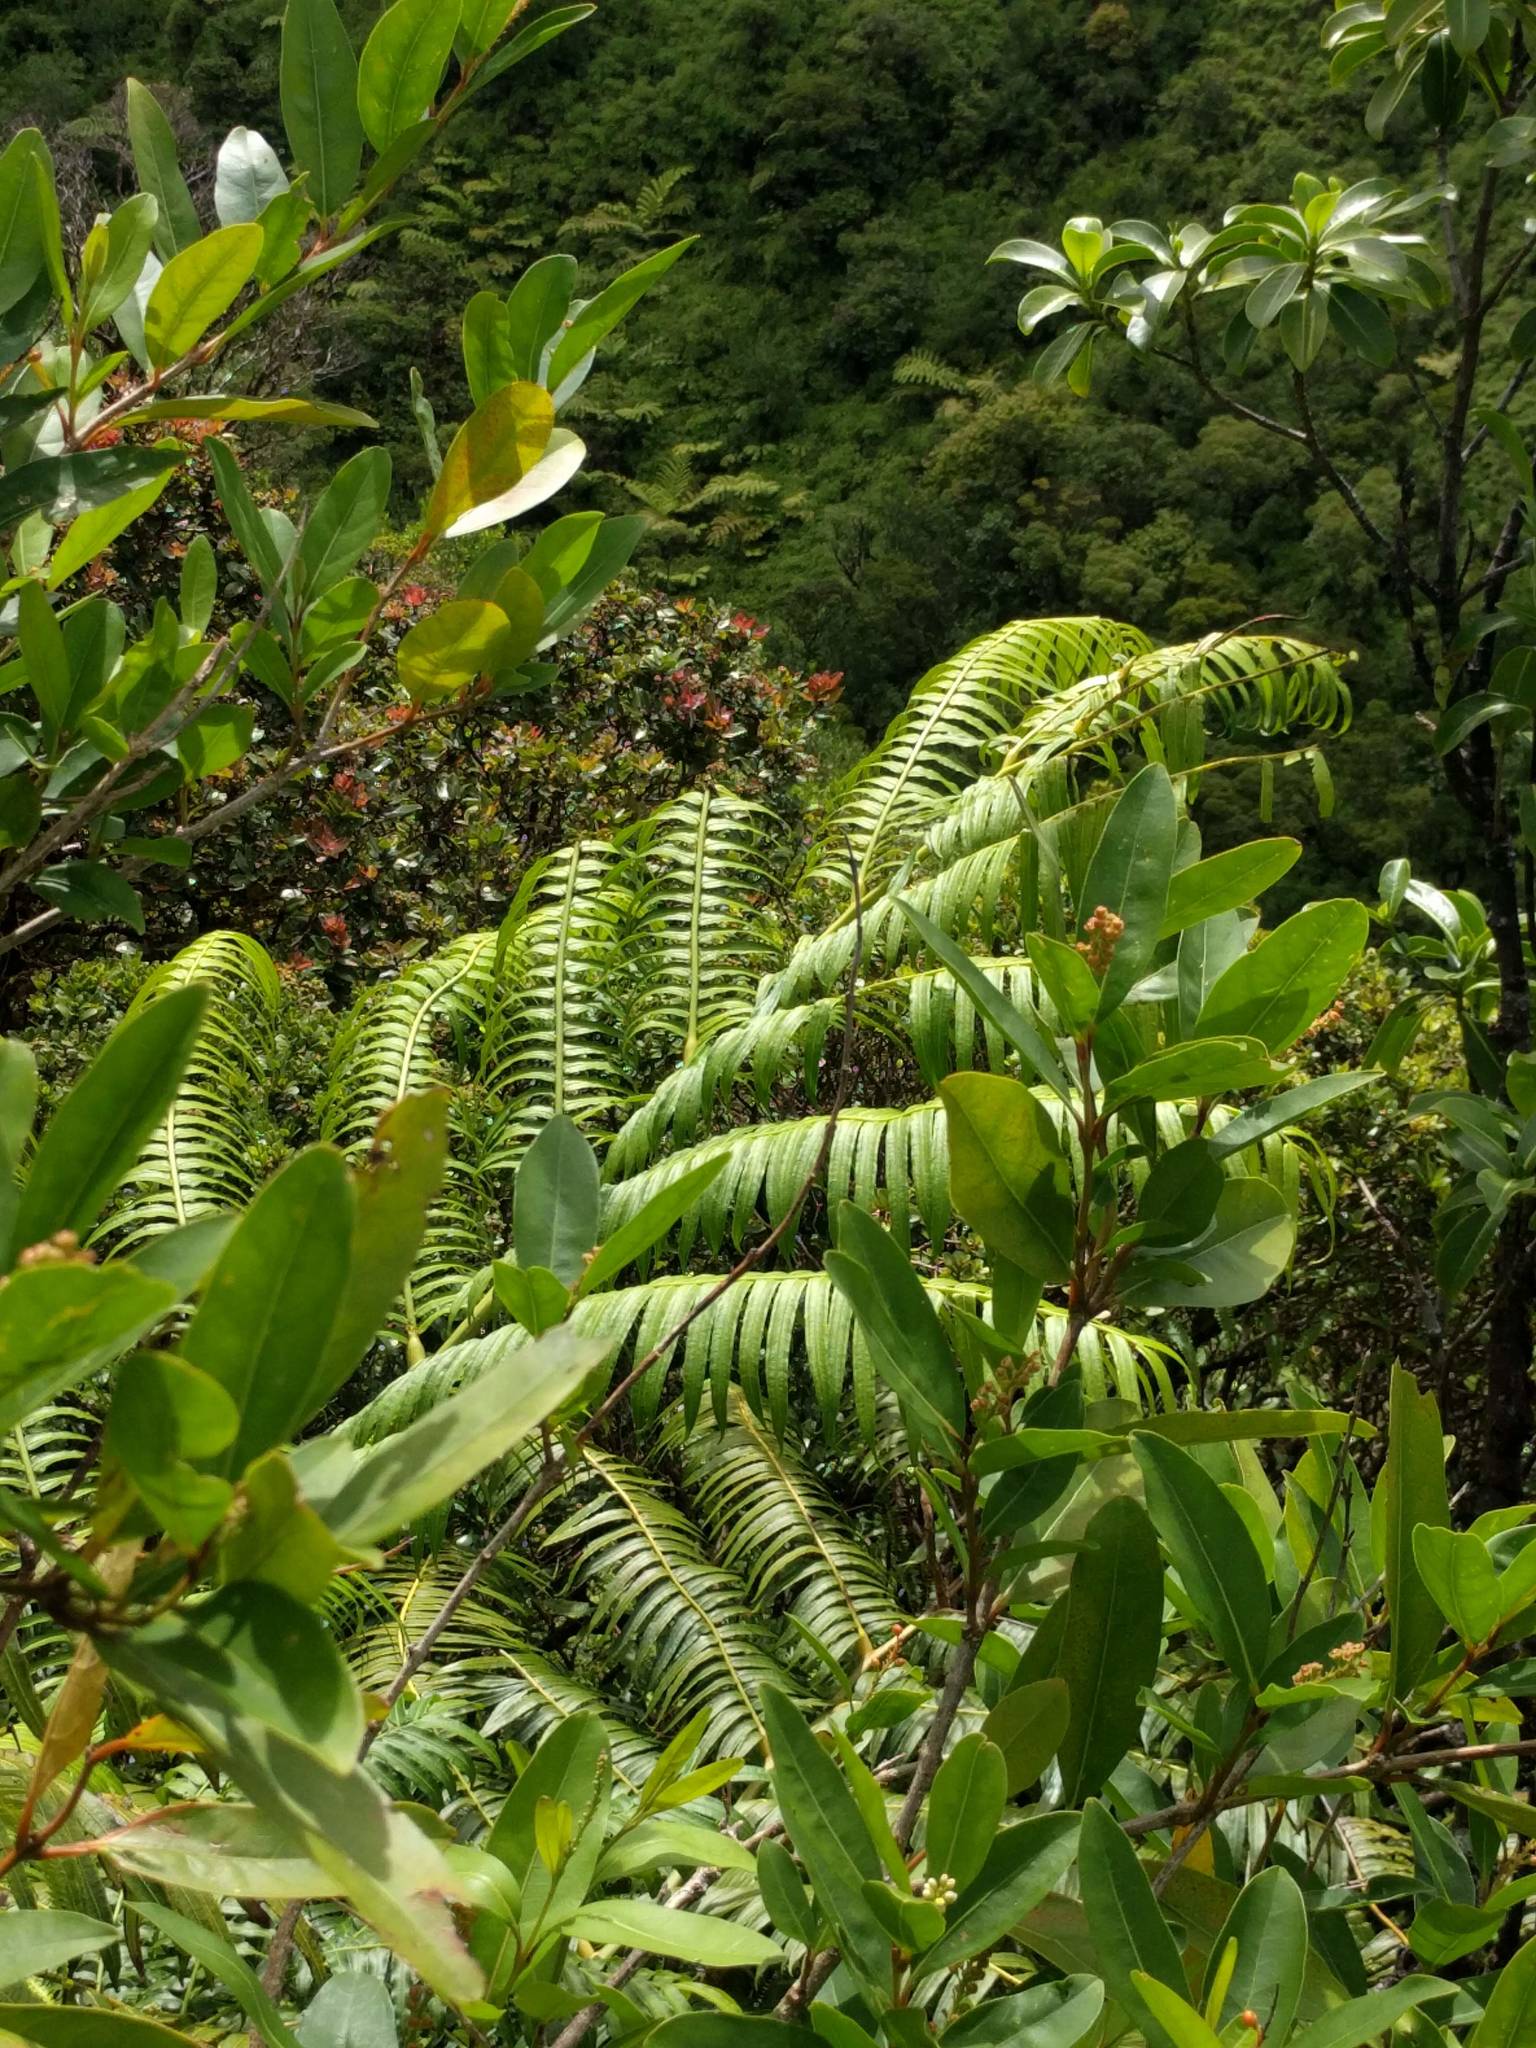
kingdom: Plantae
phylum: Tracheophyta
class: Polypodiopsida
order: Marattiales
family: Marattiaceae
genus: Angiopteris
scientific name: Angiopteris evecta
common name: Mule's-foot fern
